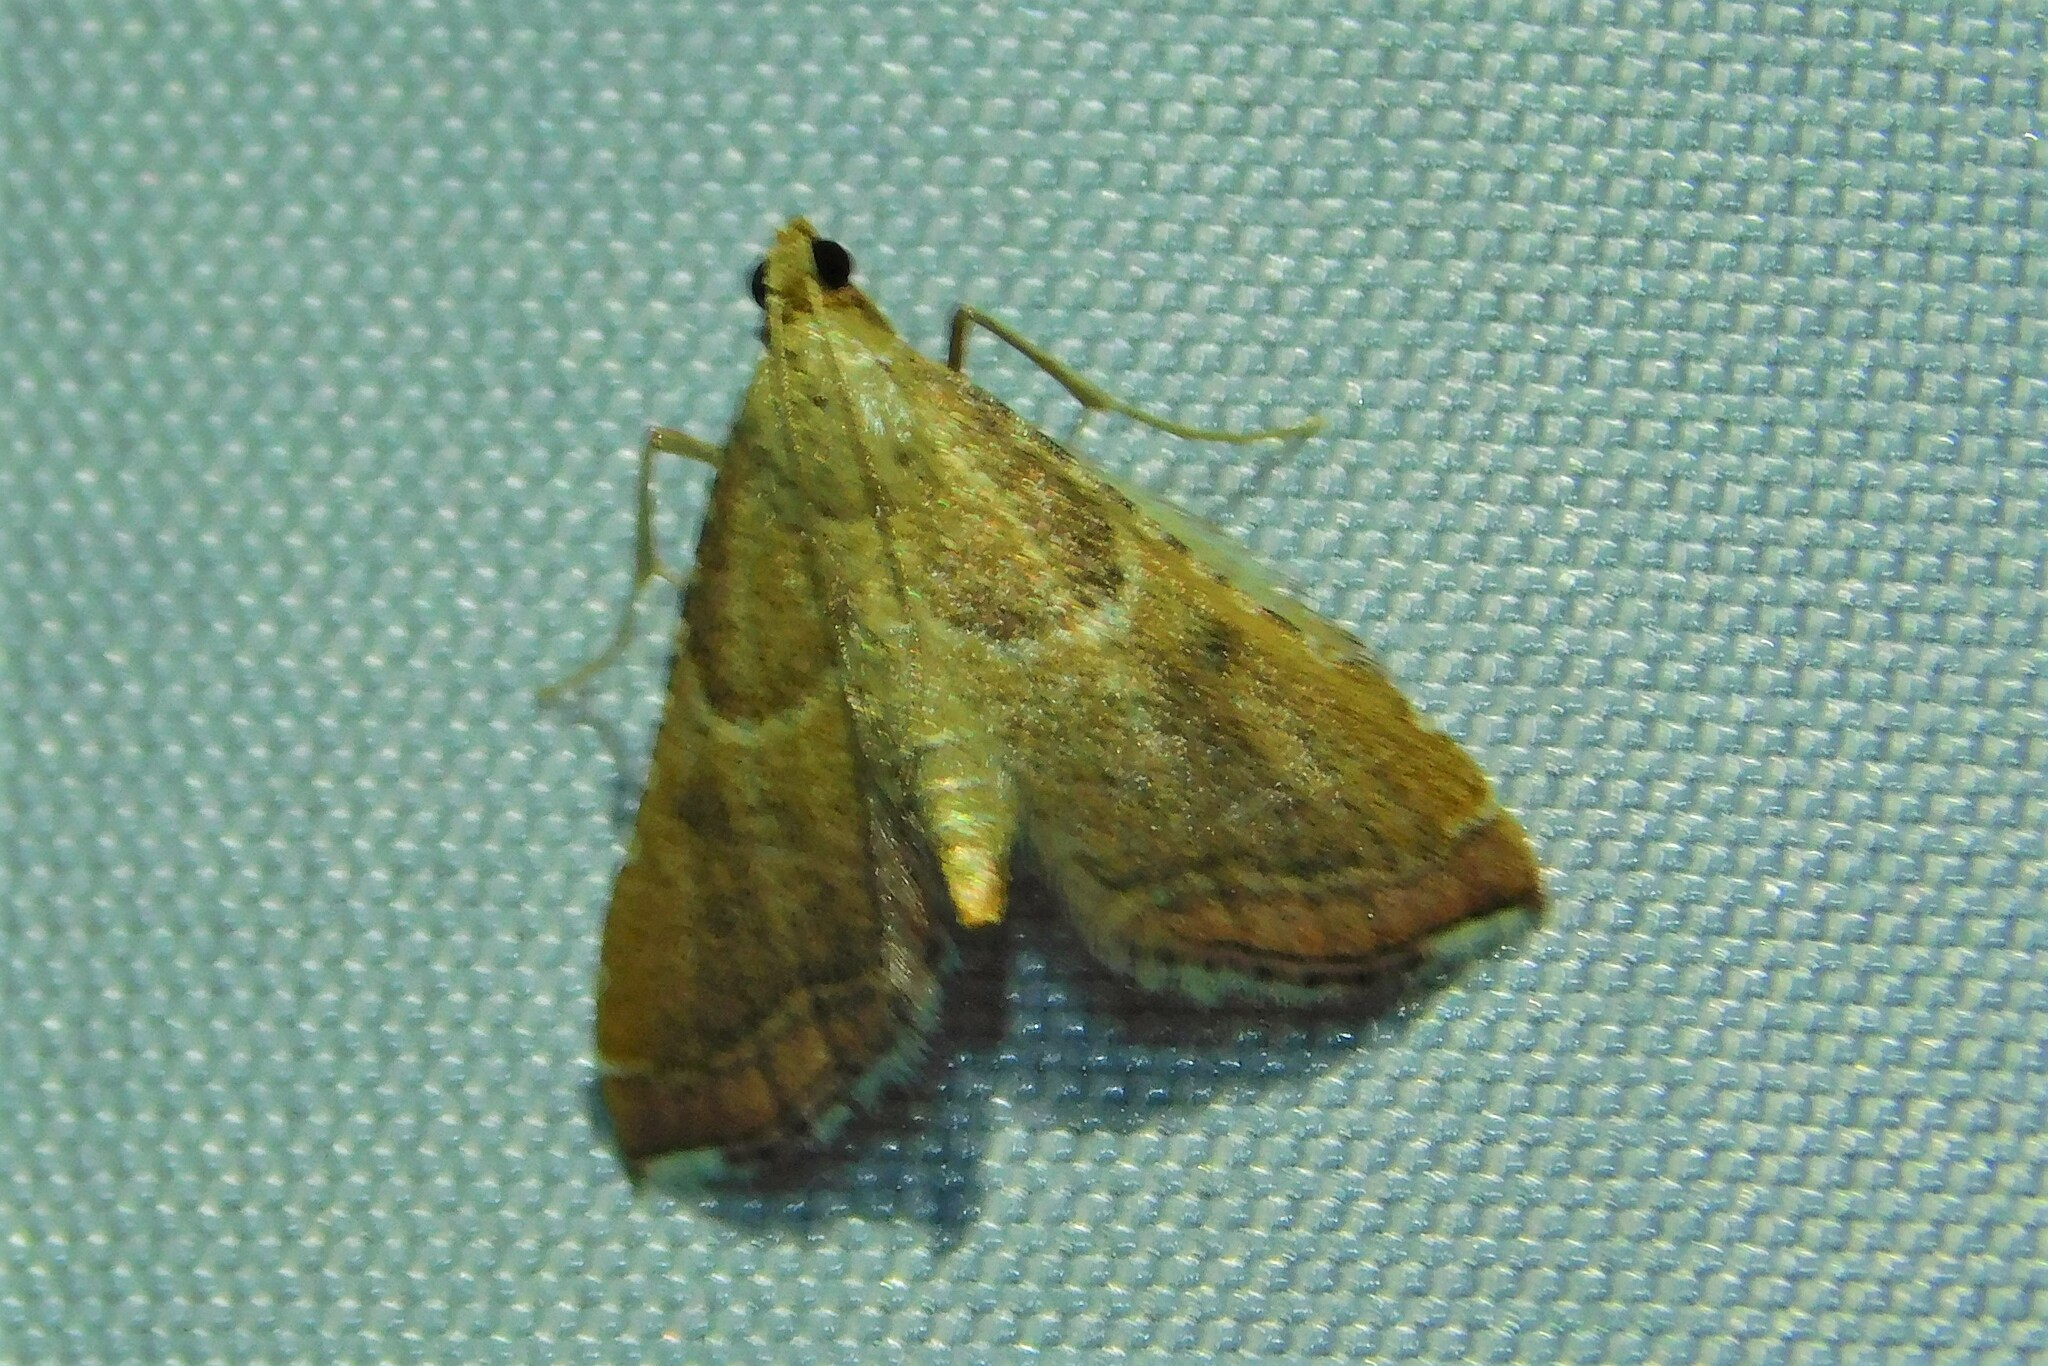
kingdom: Animalia
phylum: Arthropoda
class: Insecta
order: Lepidoptera
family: Pyralidae
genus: Endotricha
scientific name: Endotricha flammealis
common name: Rosy tabby
